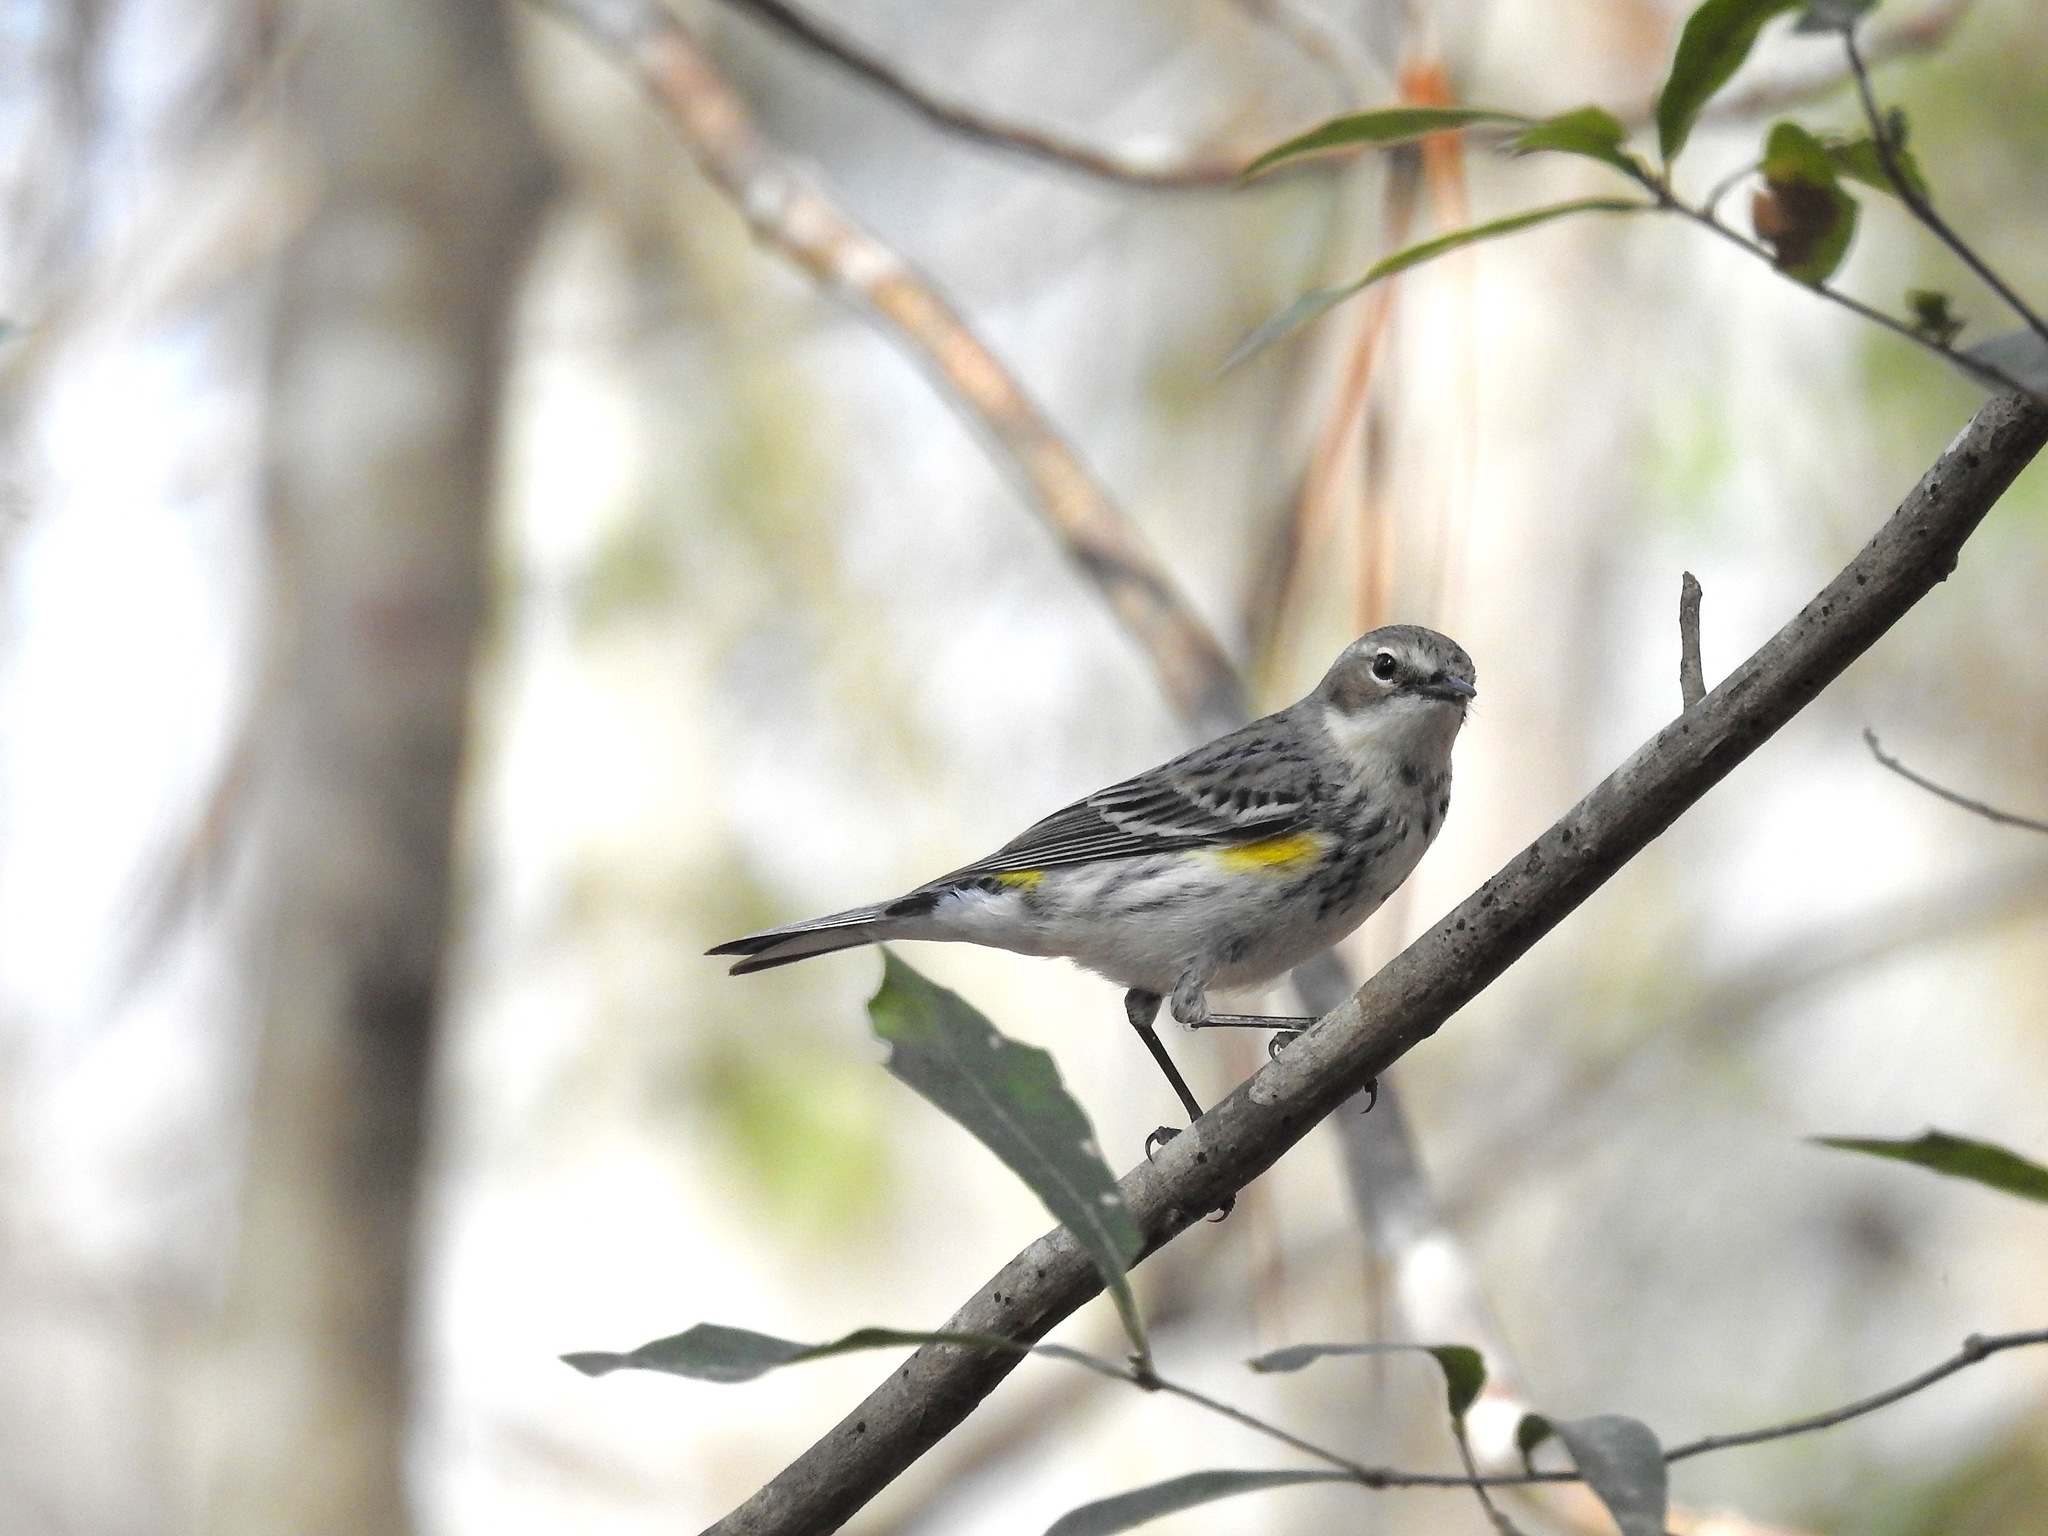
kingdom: Animalia
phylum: Chordata
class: Aves
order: Passeriformes
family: Parulidae
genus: Setophaga
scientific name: Setophaga coronata
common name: Myrtle warbler
